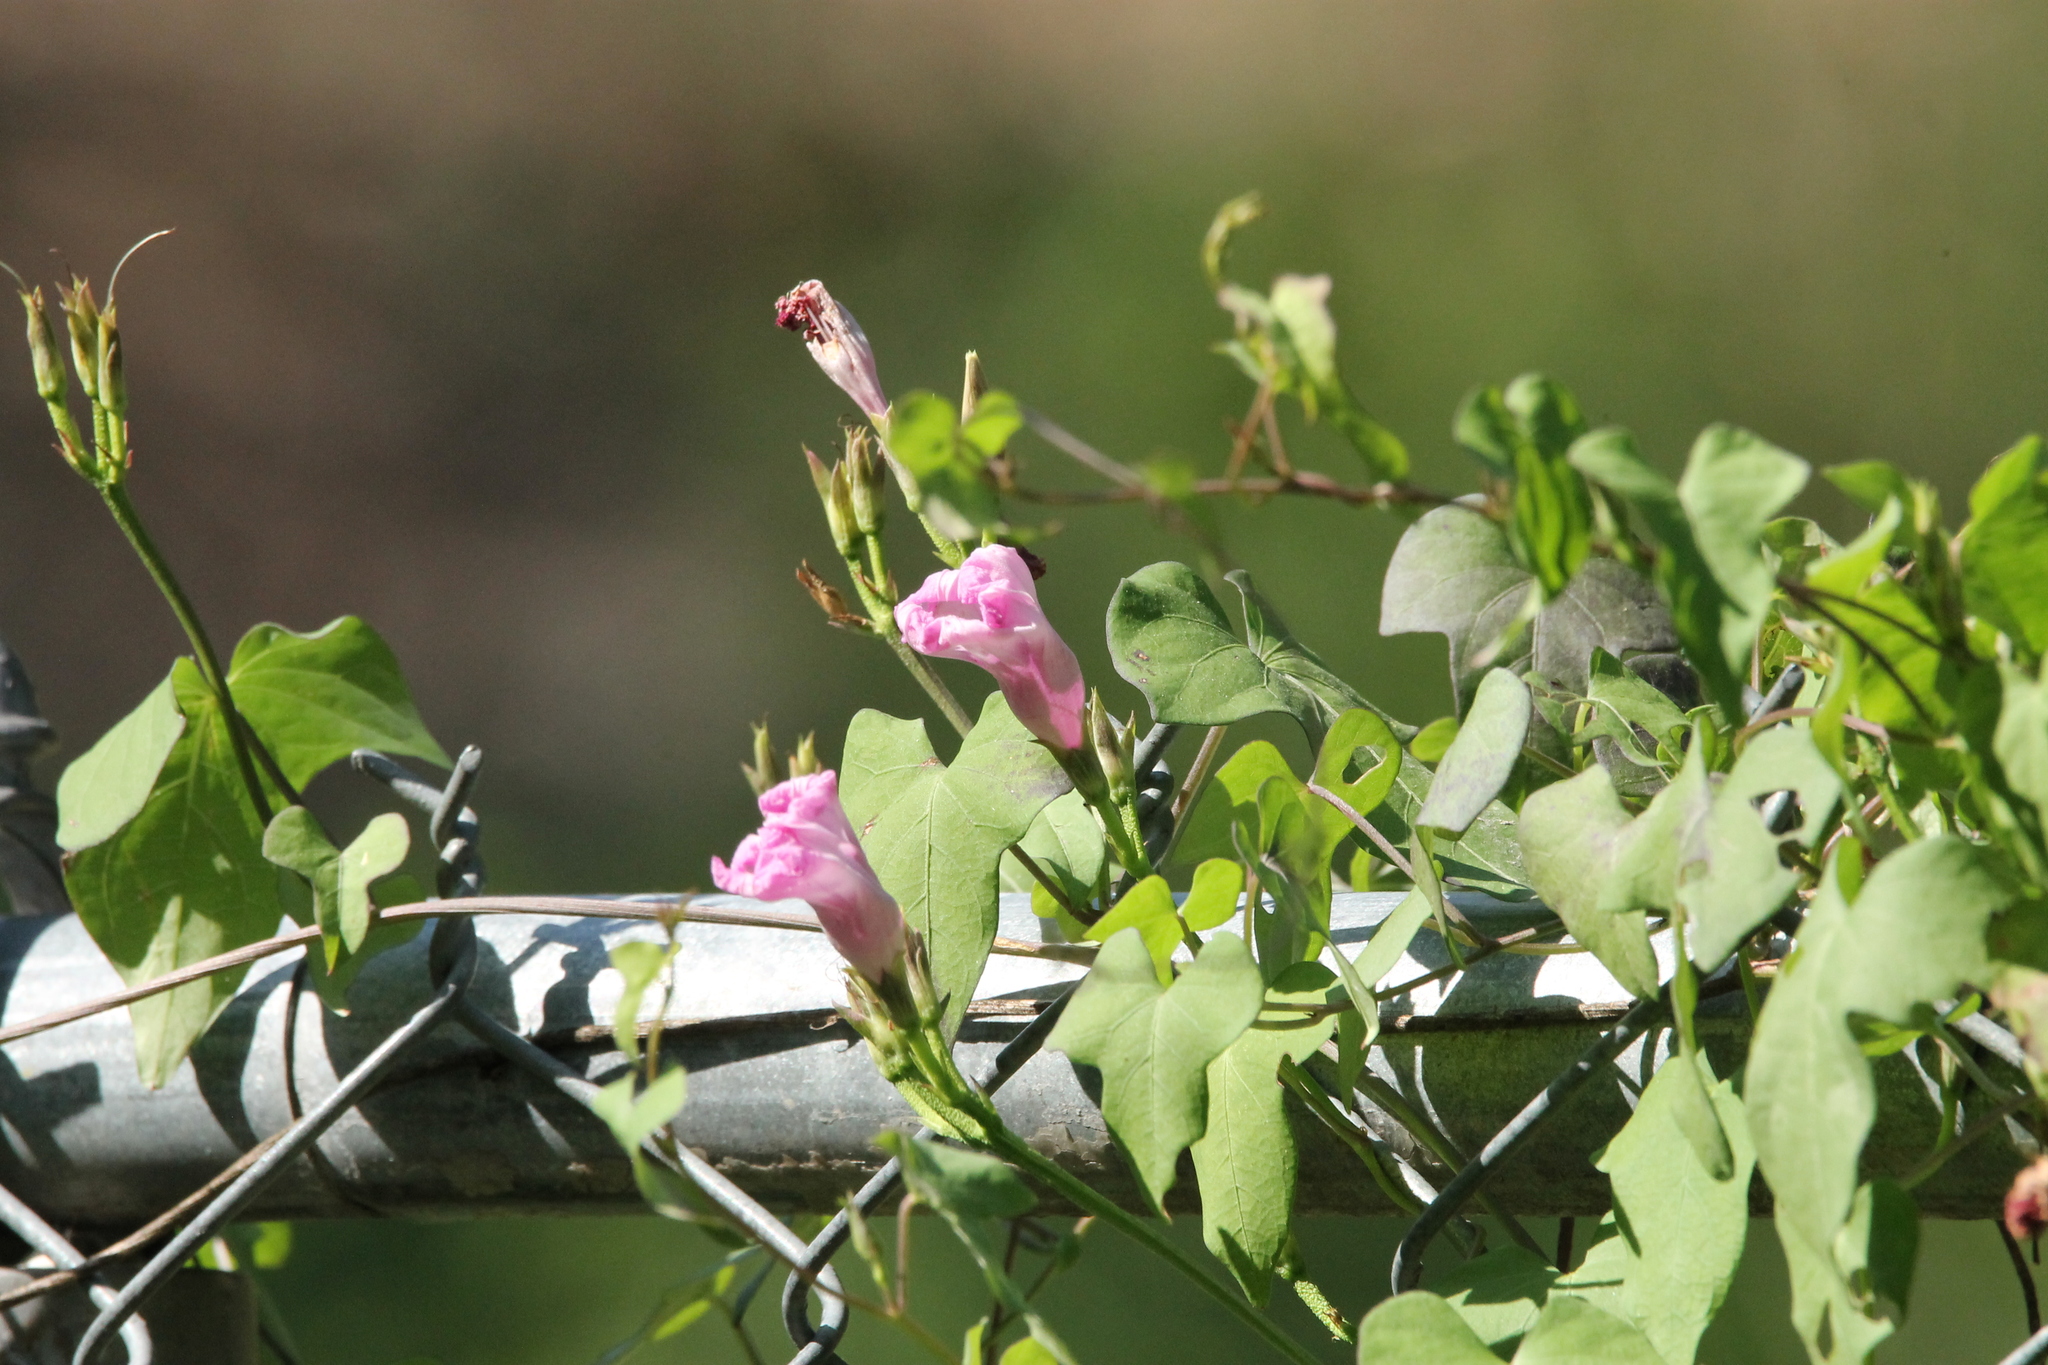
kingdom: Plantae
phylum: Tracheophyta
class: Magnoliopsida
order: Solanales
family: Convolvulaceae
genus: Ipomoea
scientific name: Ipomoea cordatotriloba
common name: Cotton morning glory
